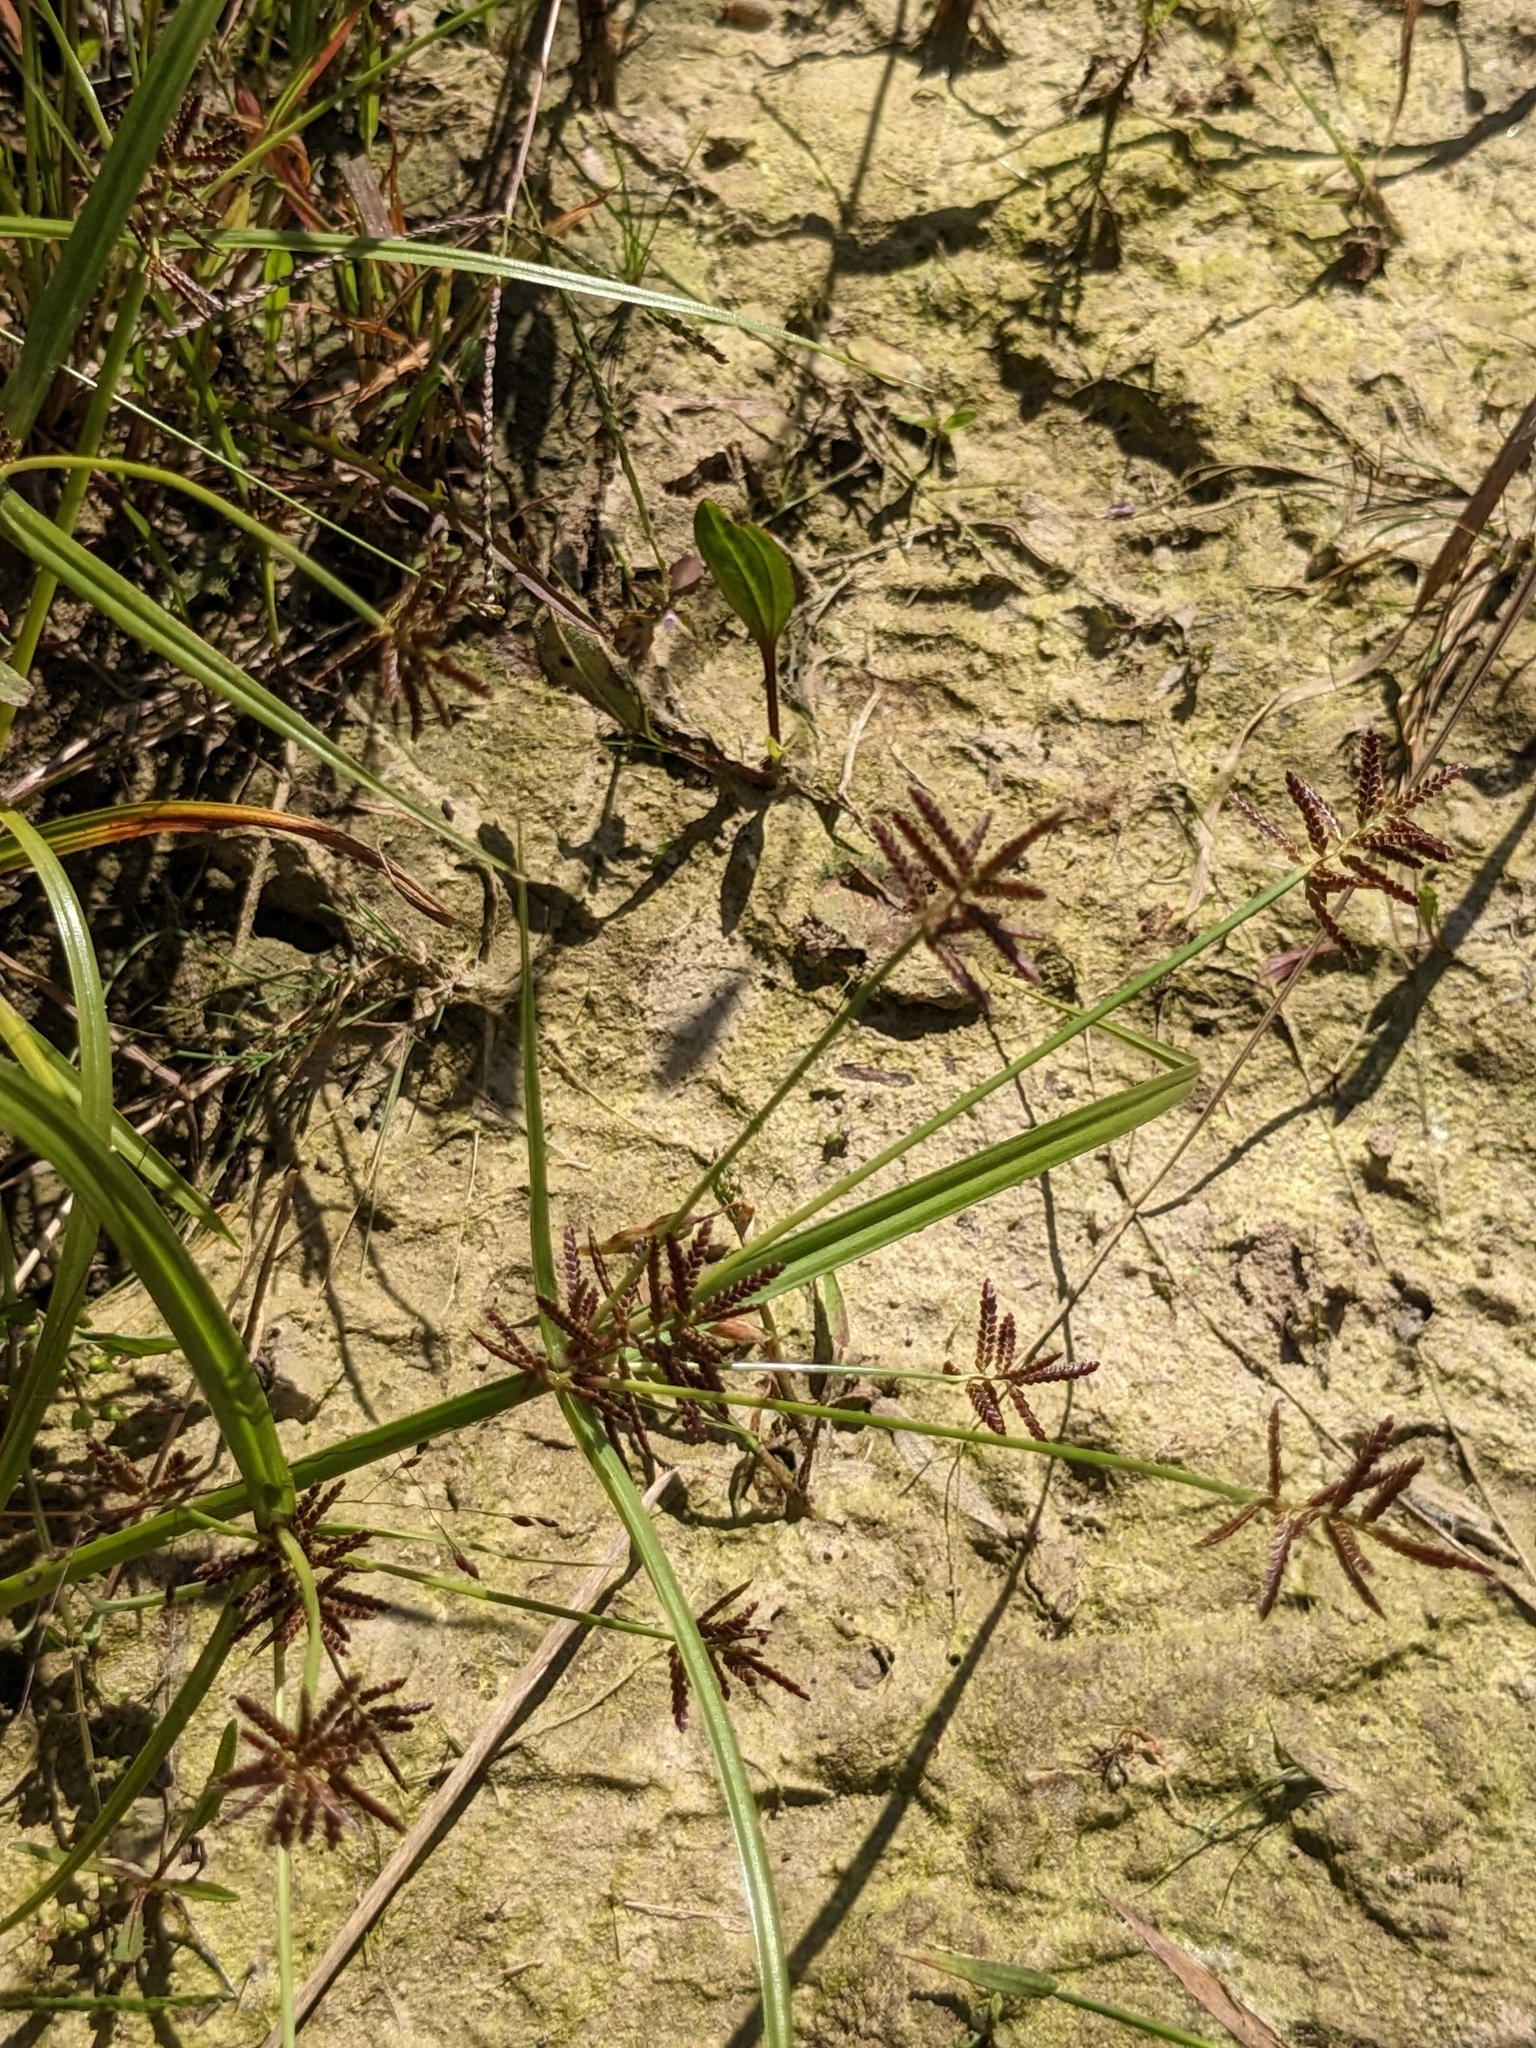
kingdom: Plantae
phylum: Tracheophyta
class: Liliopsida
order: Poales
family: Cyperaceae
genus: Cyperus
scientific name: Cyperus orthostachyus
